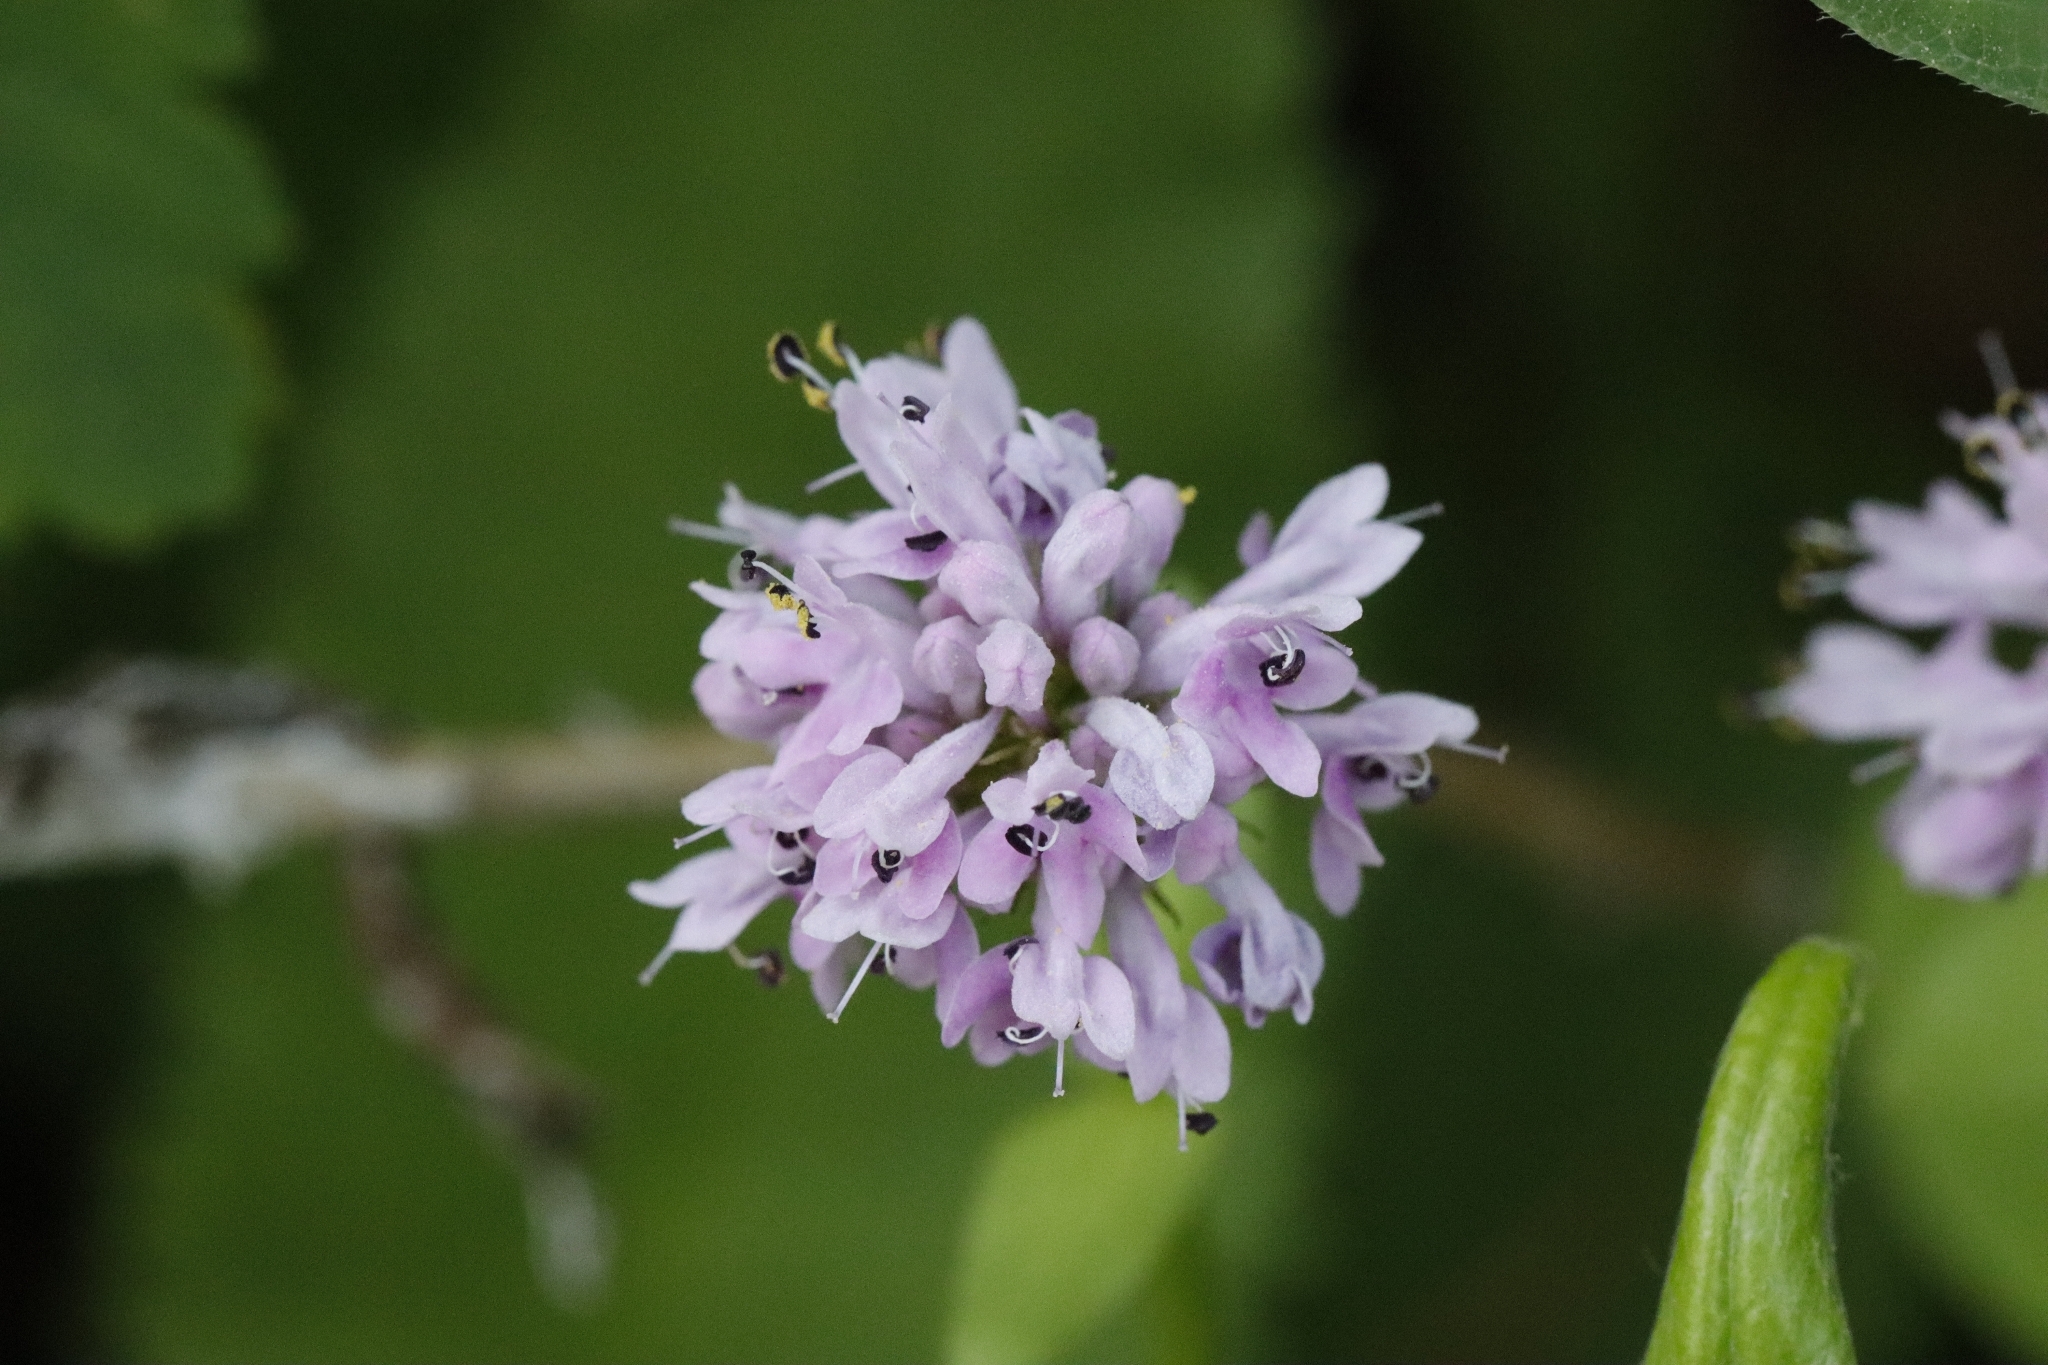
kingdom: Plantae
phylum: Tracheophyta
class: Magnoliopsida
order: Dipsacales
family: Caprifoliaceae
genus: Plectritis
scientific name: Plectritis congesta
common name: Pink plectritis
